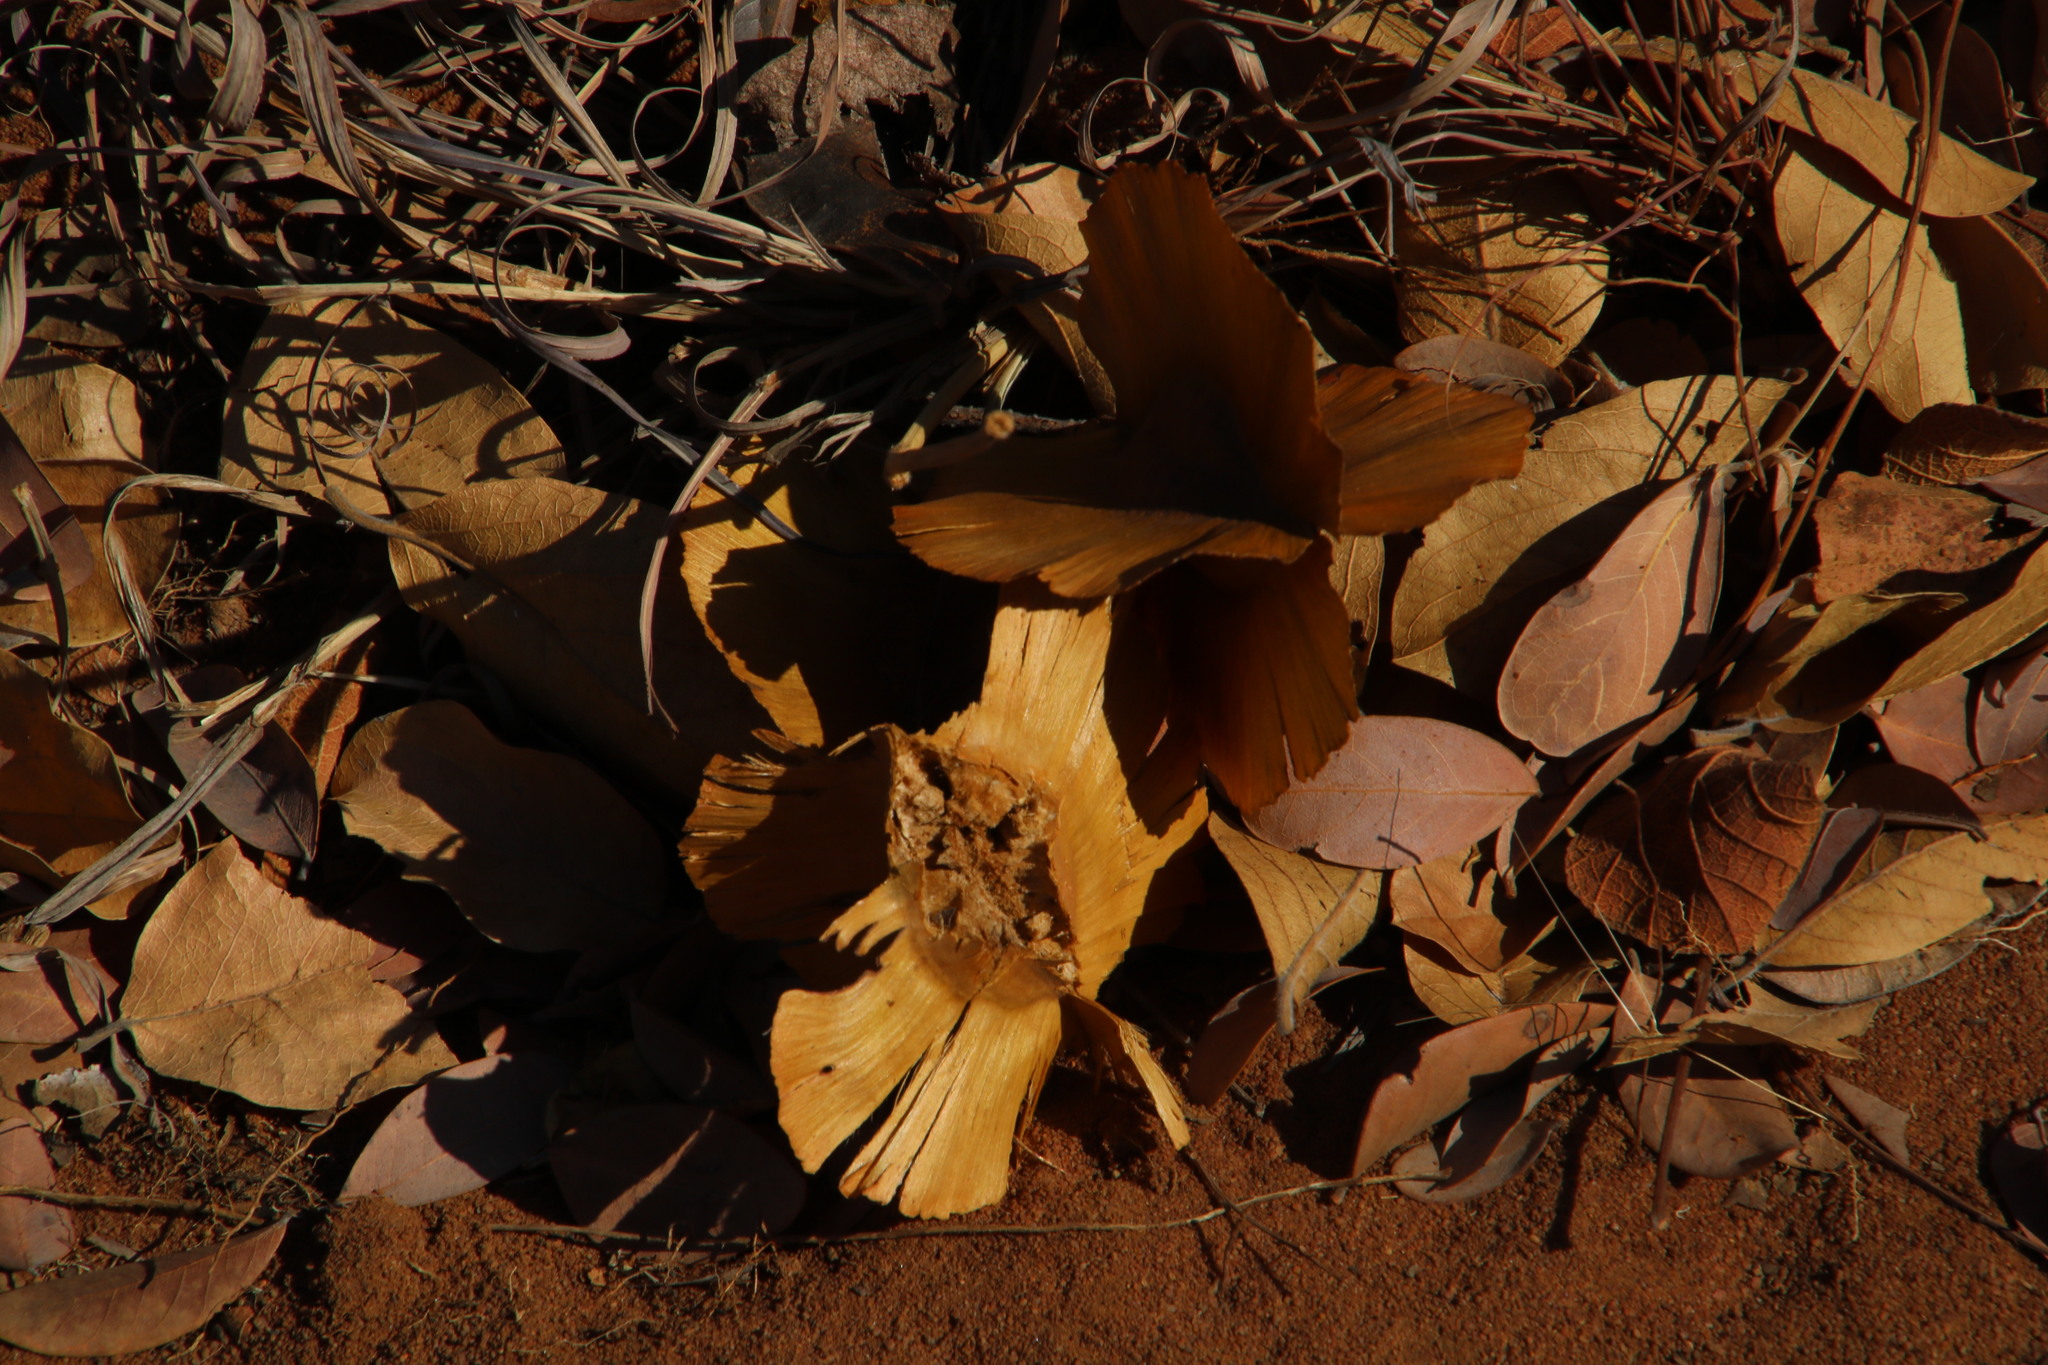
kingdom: Plantae
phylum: Tracheophyta
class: Magnoliopsida
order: Myrtales
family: Combretaceae
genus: Combretum
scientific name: Combretum zeyheri
